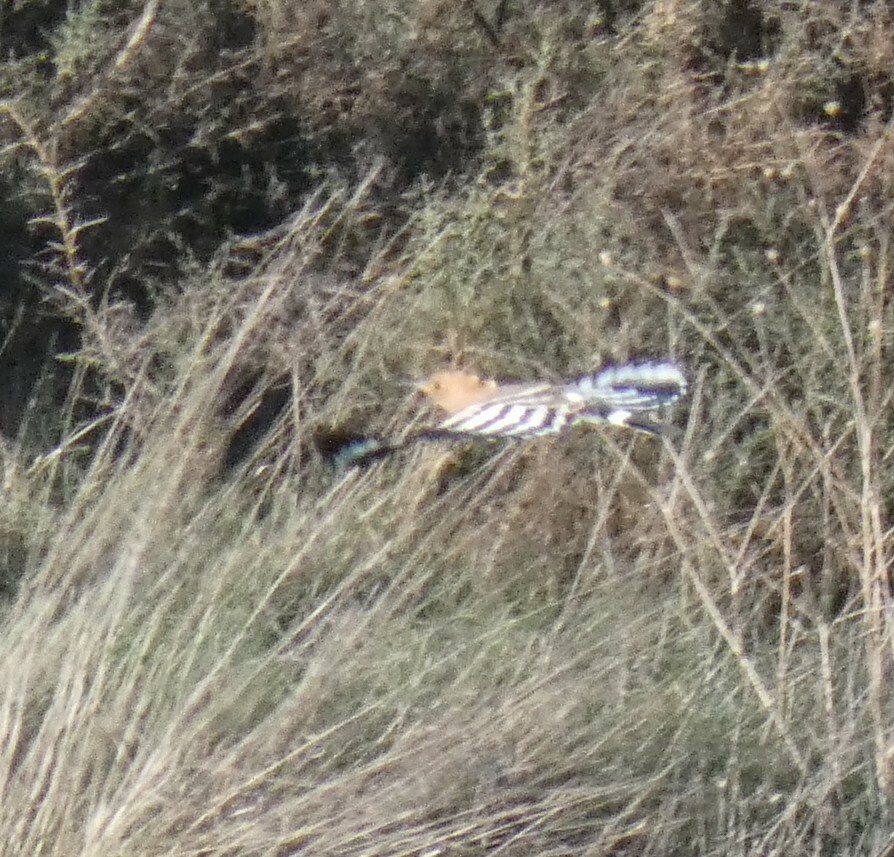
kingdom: Animalia
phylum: Chordata
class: Aves
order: Bucerotiformes
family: Upupidae
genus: Upupa
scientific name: Upupa epops
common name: Eurasian hoopoe
